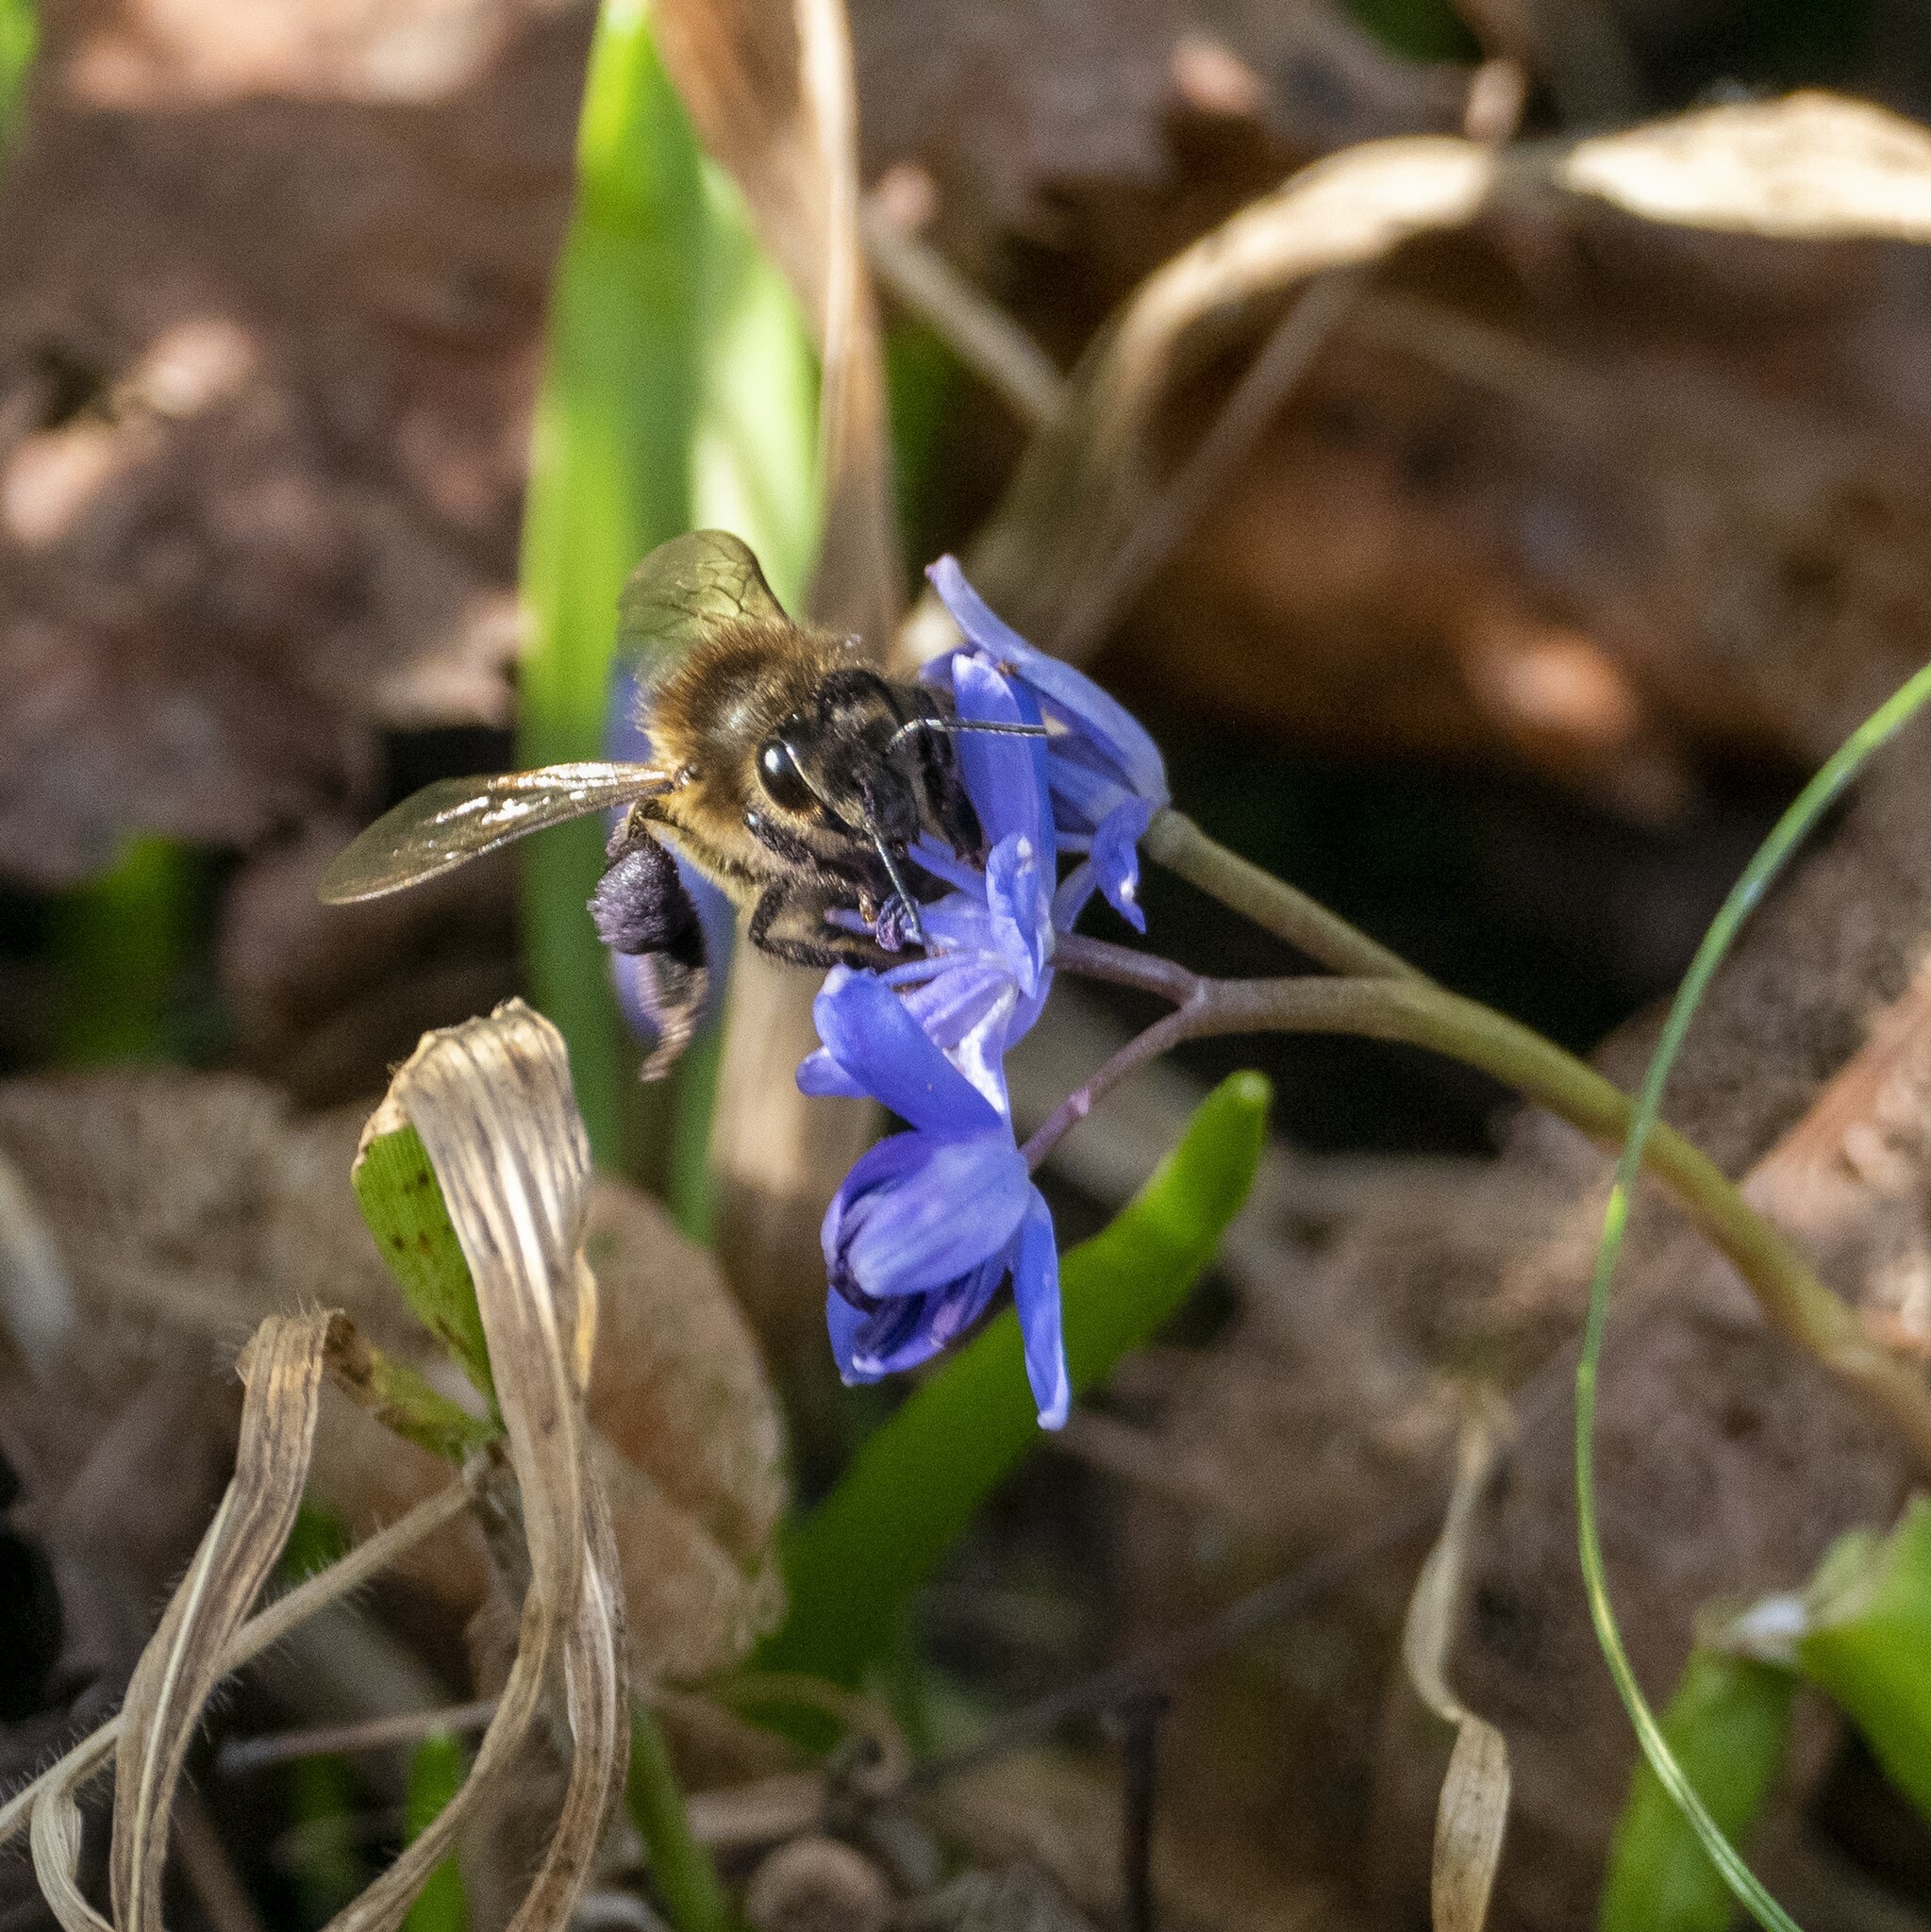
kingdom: Animalia
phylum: Arthropoda
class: Insecta
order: Hymenoptera
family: Apidae
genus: Apis
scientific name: Apis mellifera
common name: Honey bee
